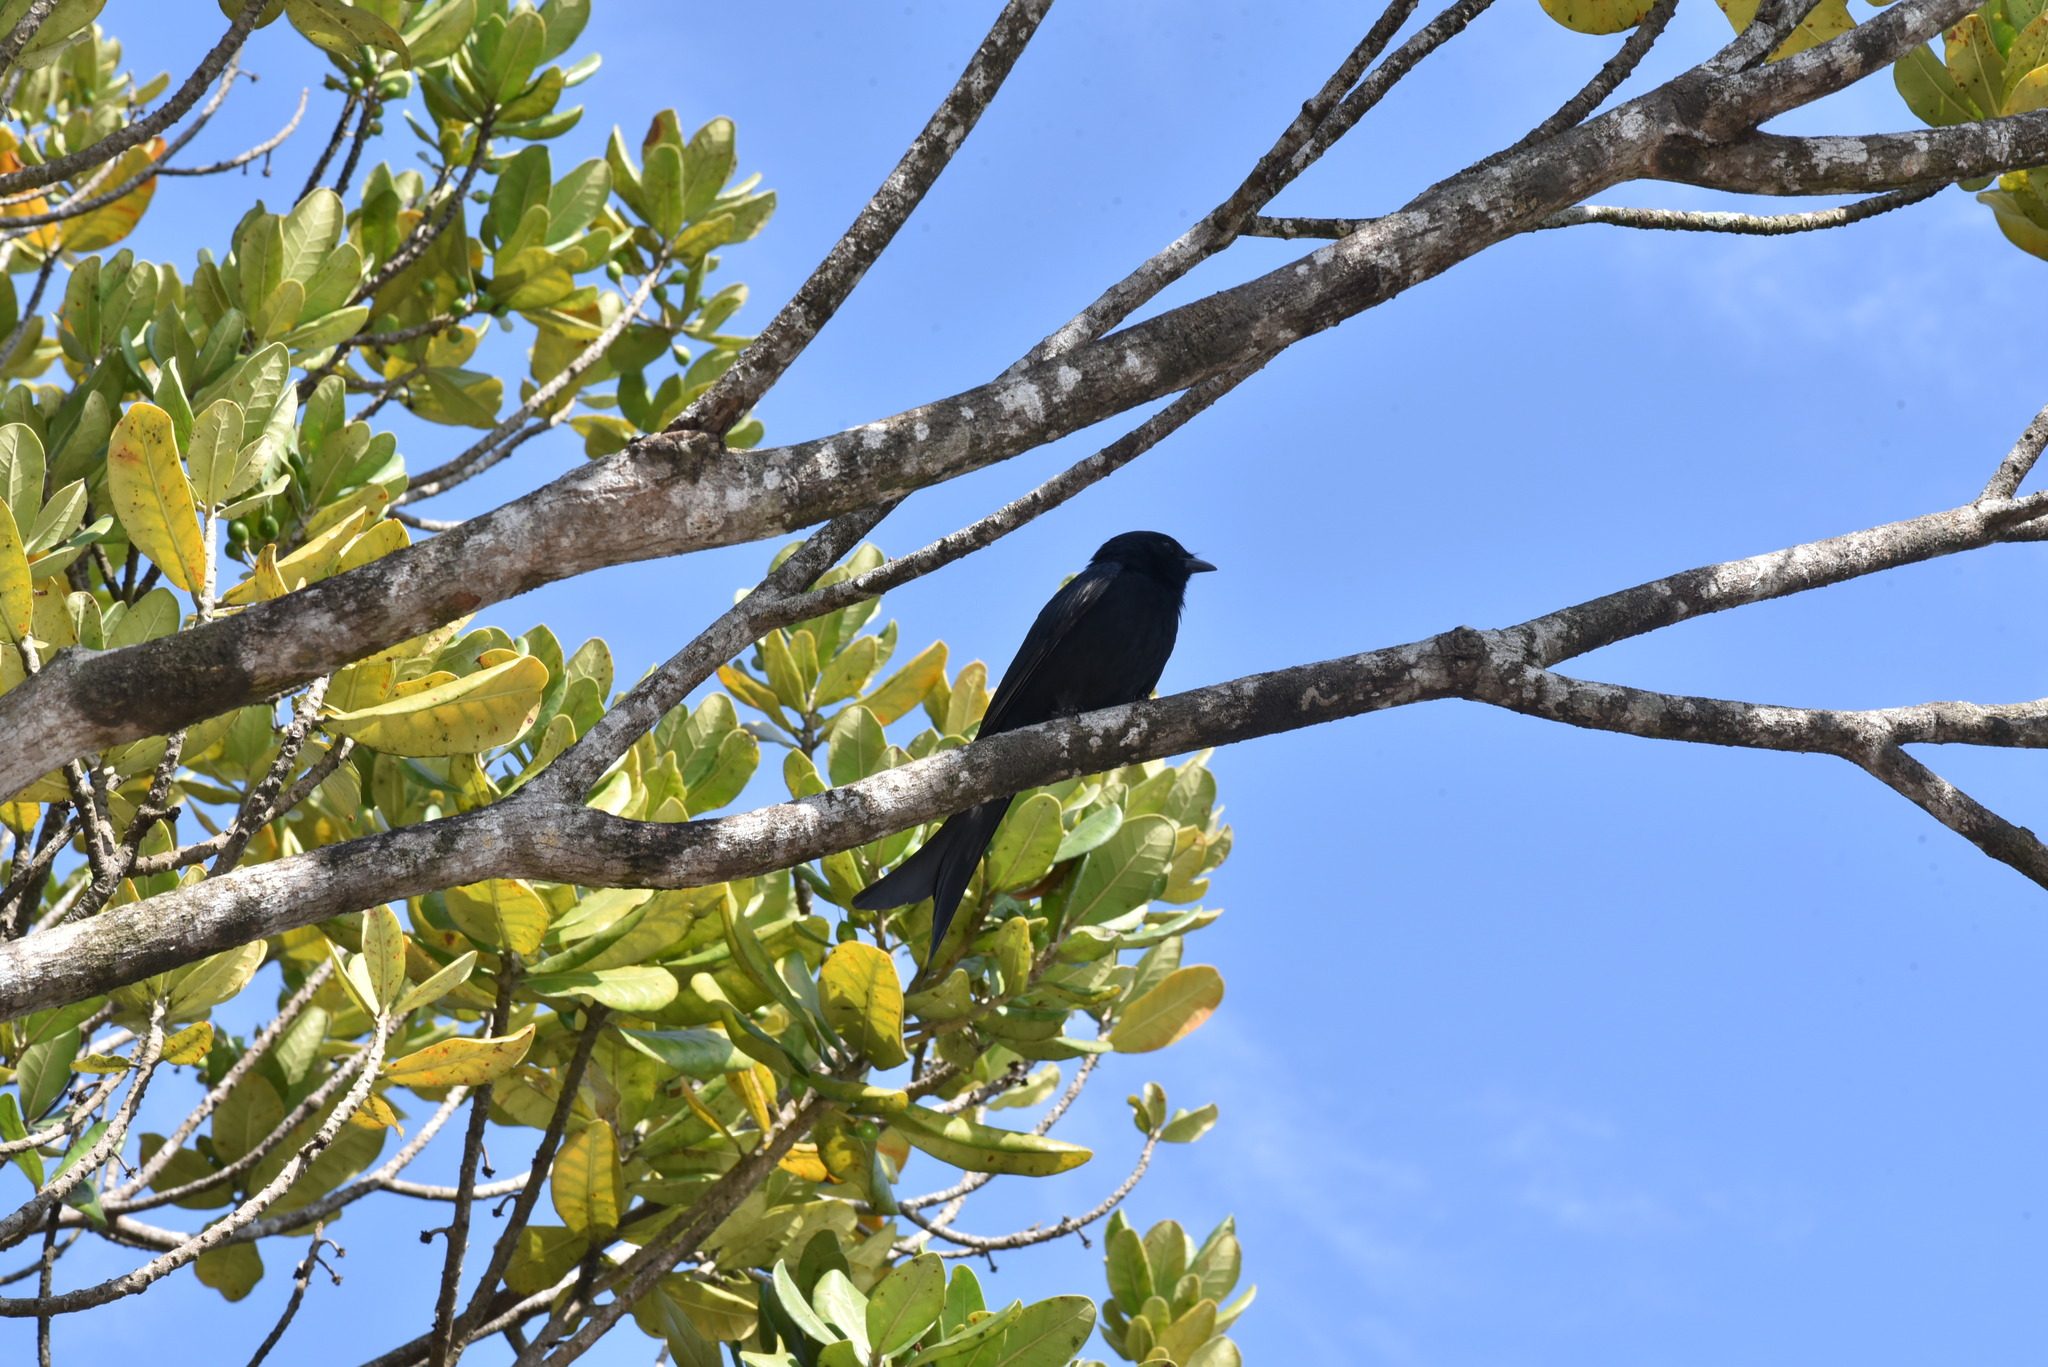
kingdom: Animalia
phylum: Chordata
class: Aves
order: Passeriformes
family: Dicruridae
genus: Dicrurus
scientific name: Dicrurus macrocercus
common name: Black drongo
